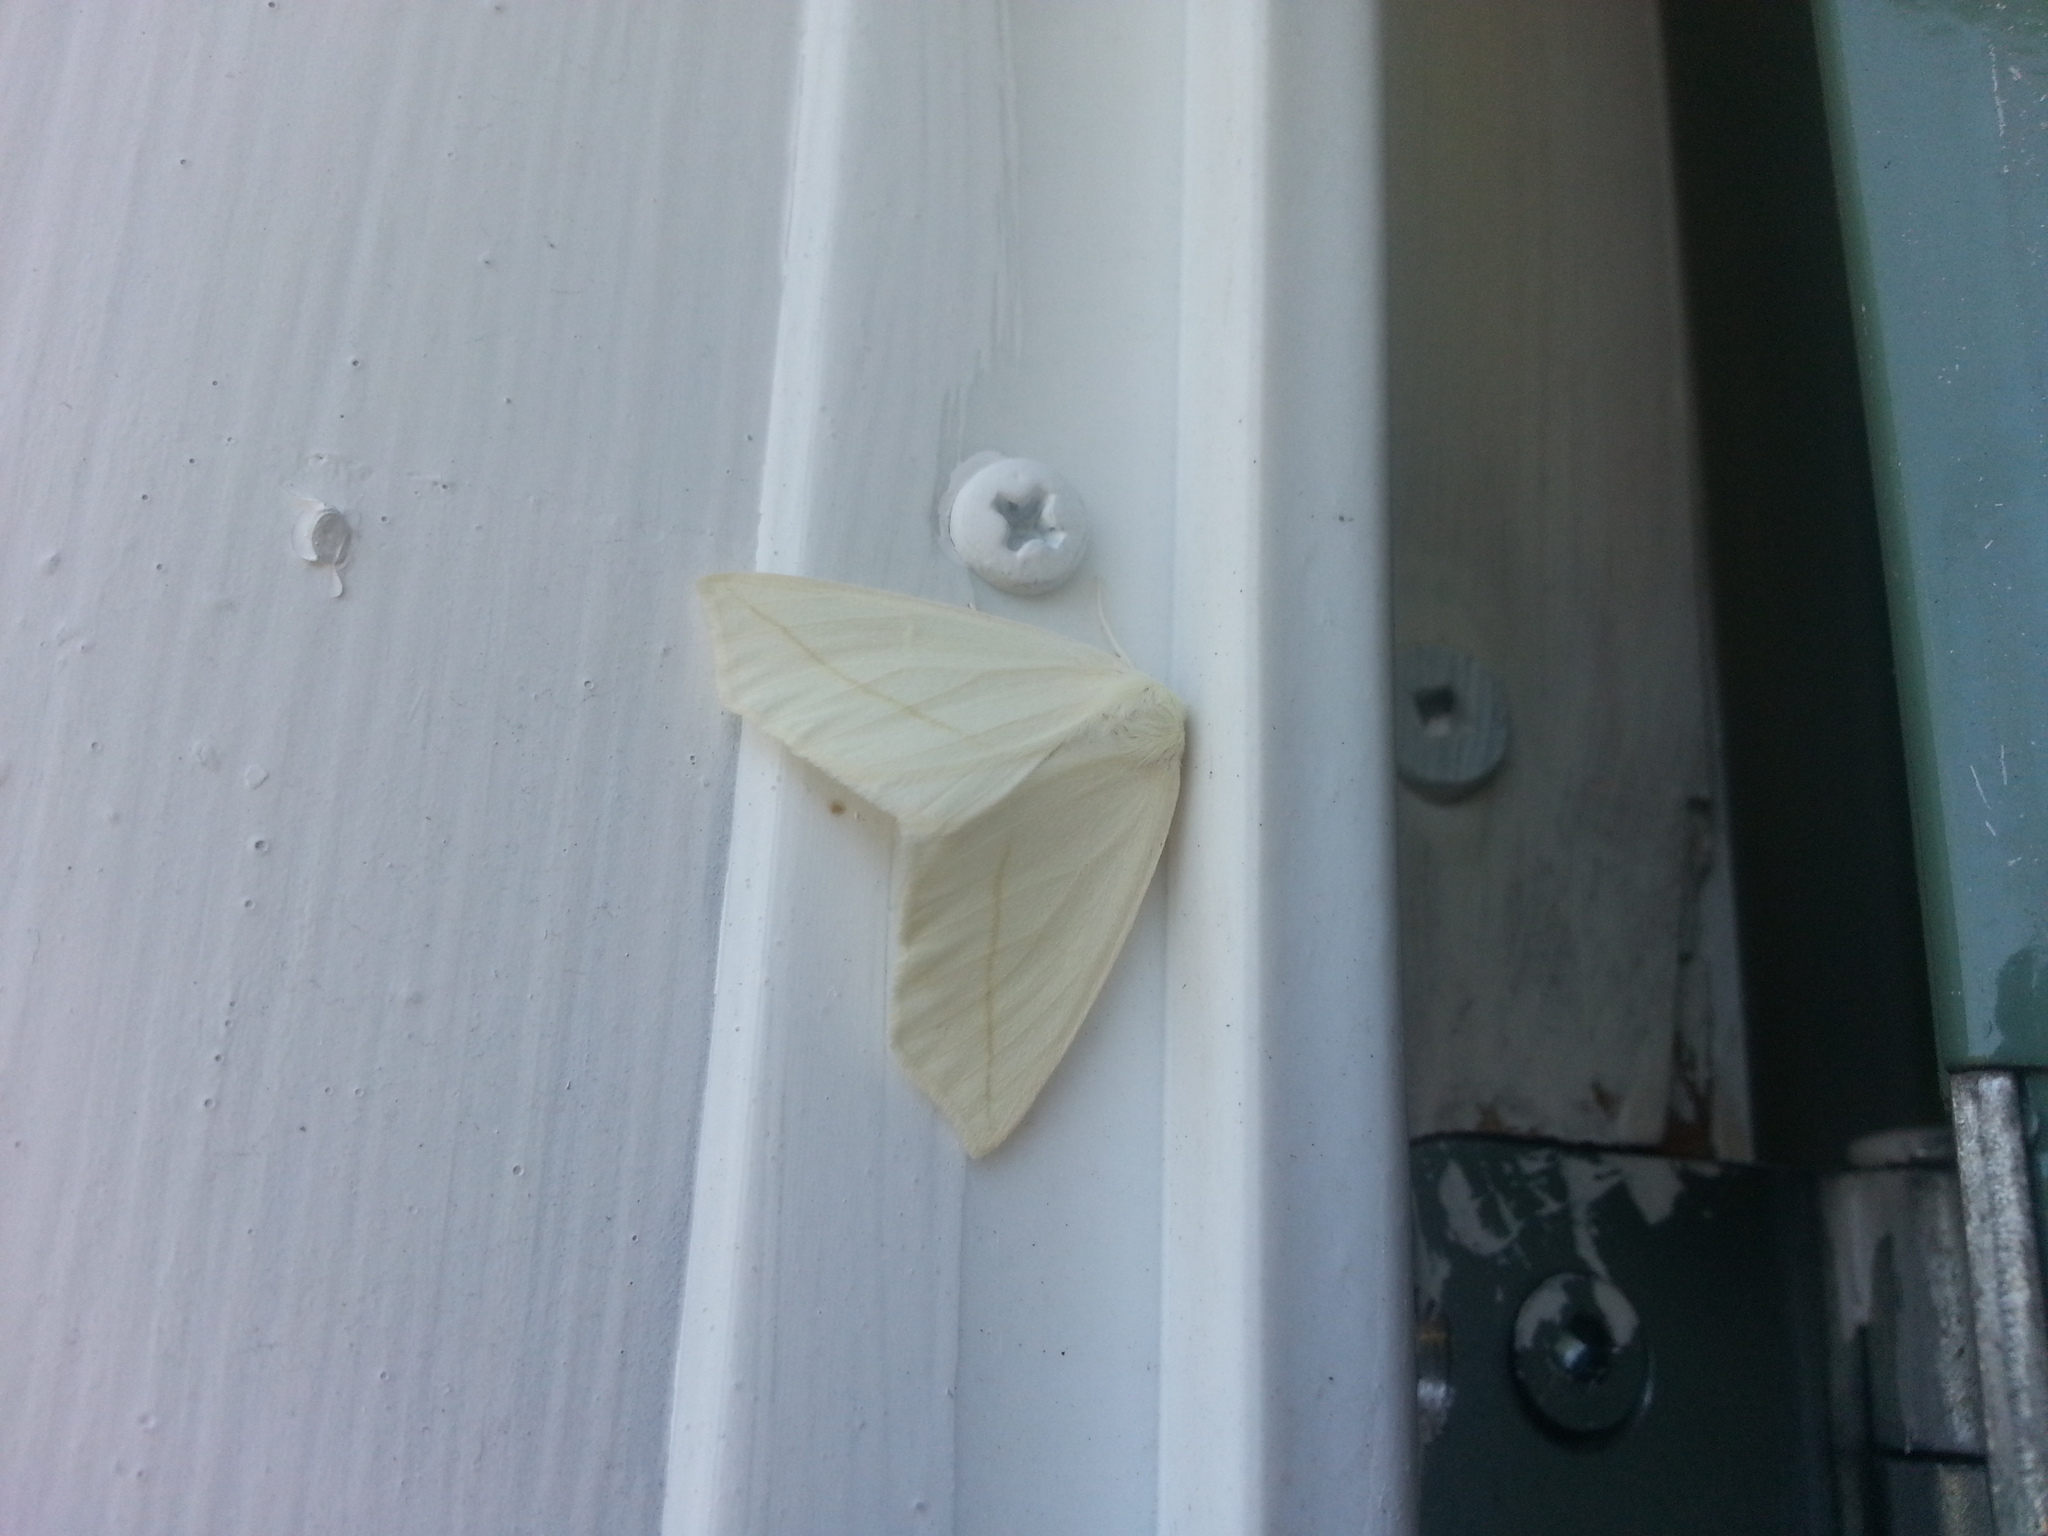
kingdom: Animalia
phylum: Arthropoda
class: Insecta
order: Lepidoptera
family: Geometridae
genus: Tetracis
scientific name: Tetracis cachexiata
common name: White slant-line
